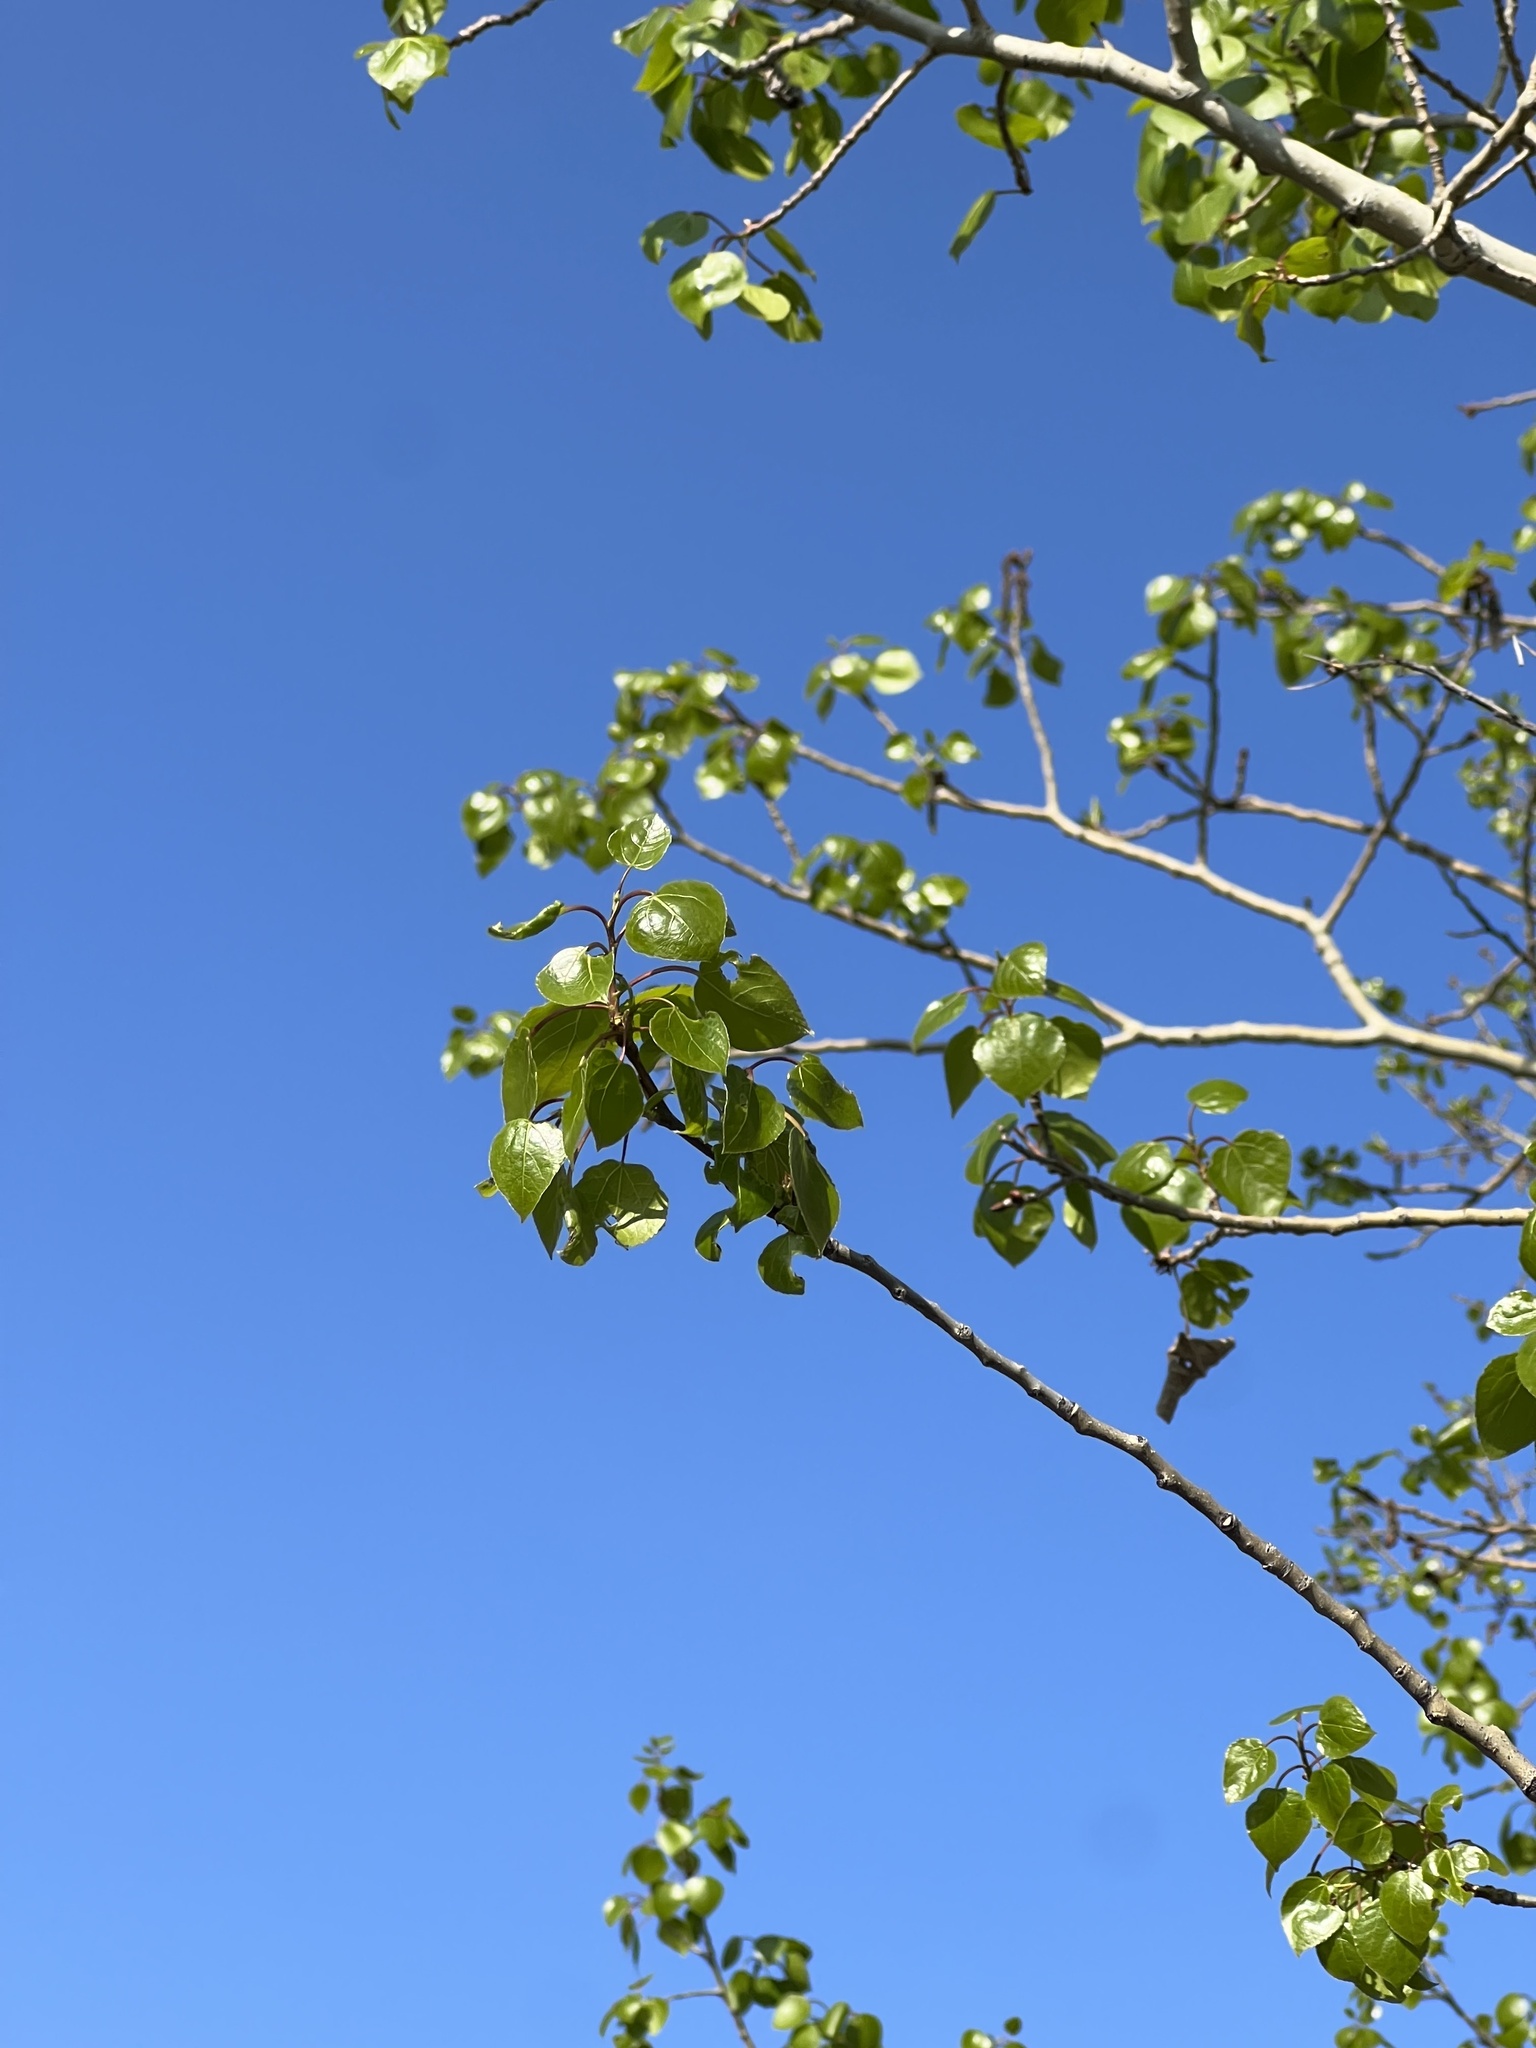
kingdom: Plantae
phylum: Tracheophyta
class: Magnoliopsida
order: Malpighiales
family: Salicaceae
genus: Populus
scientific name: Populus tremuloides
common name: Quaking aspen
